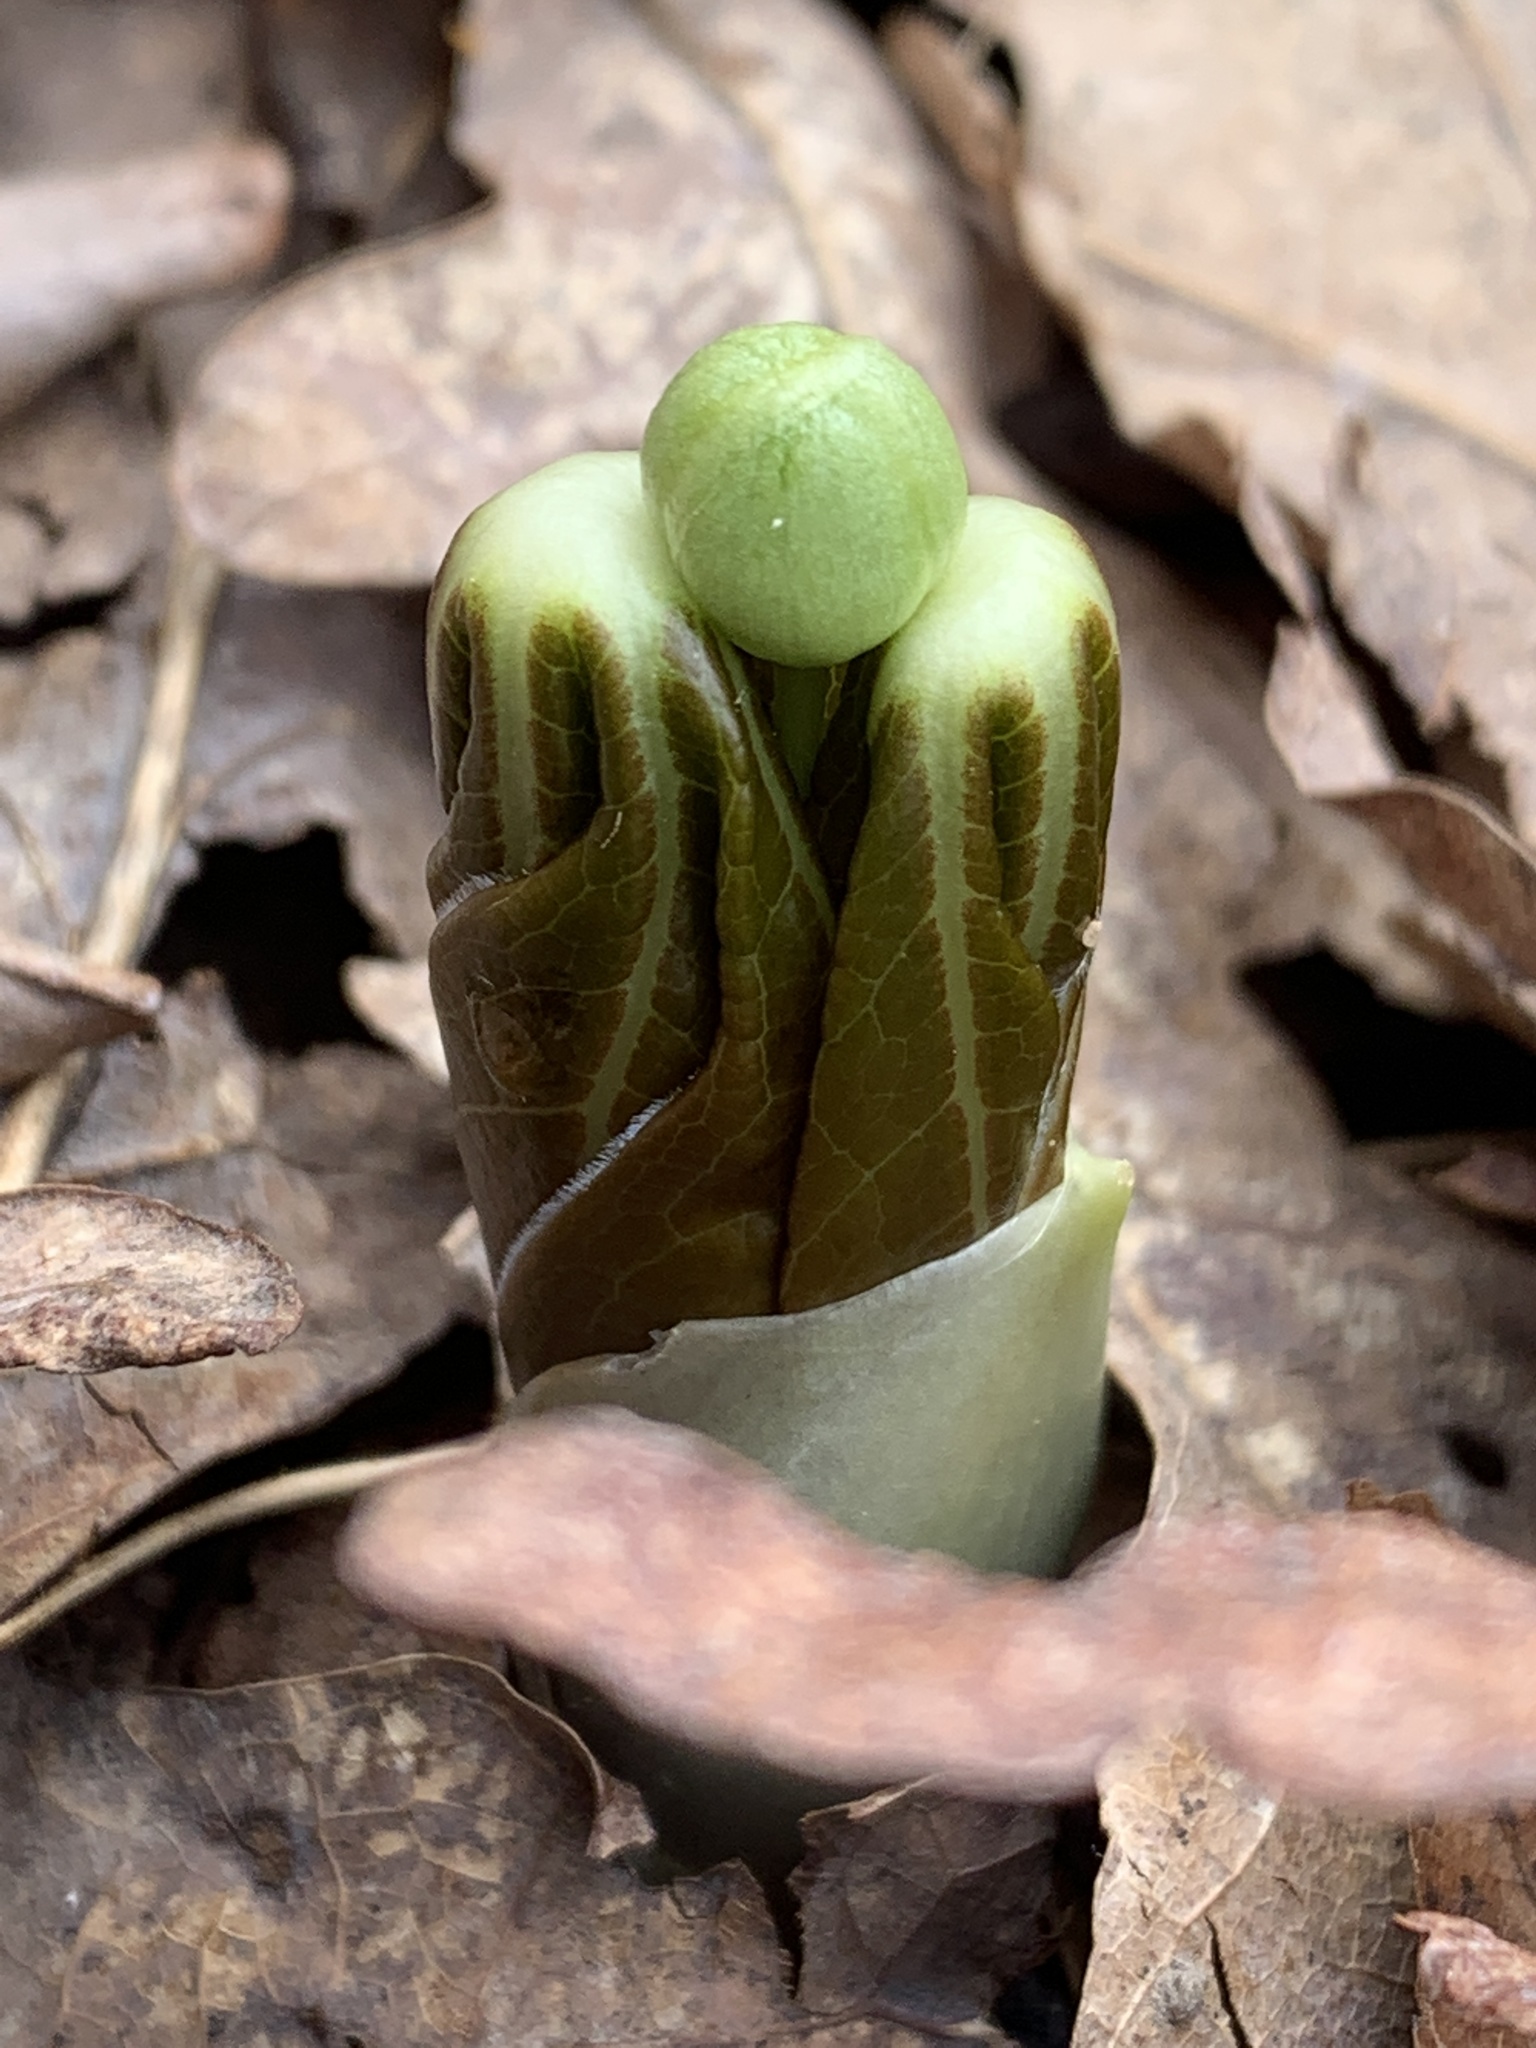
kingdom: Plantae
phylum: Tracheophyta
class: Magnoliopsida
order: Ranunculales
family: Berberidaceae
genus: Podophyllum
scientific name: Podophyllum peltatum
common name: Wild mandrake
